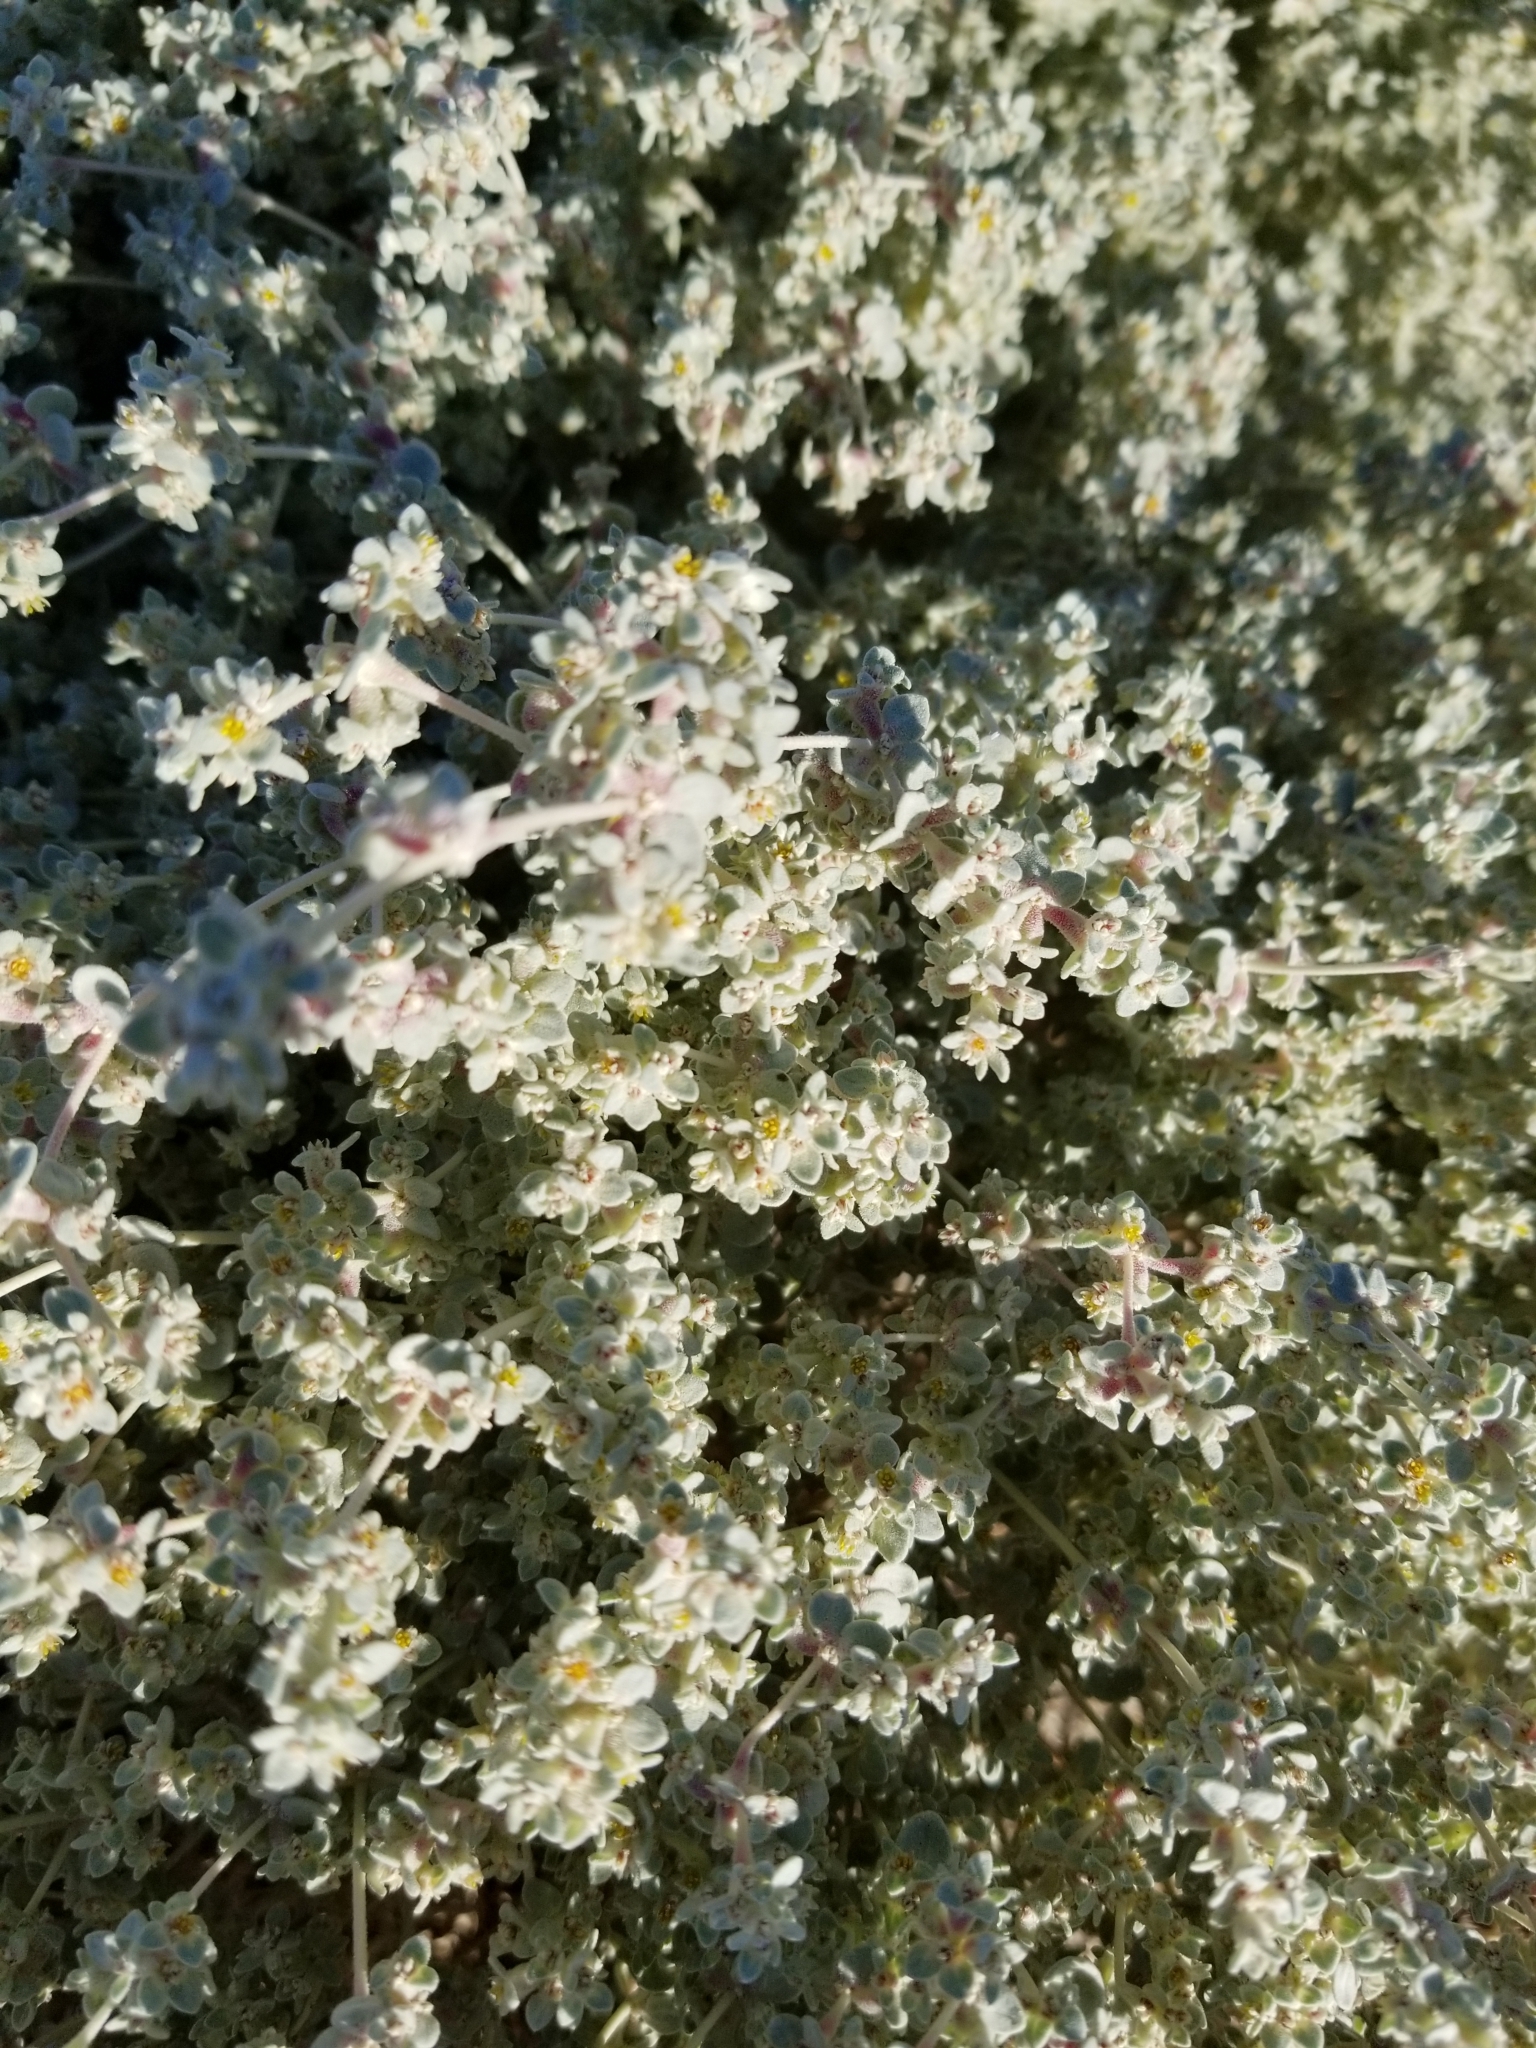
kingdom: Plantae
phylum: Tracheophyta
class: Magnoliopsida
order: Caryophyllales
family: Amaranthaceae
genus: Tidestromia
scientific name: Tidestromia suffruticosa
